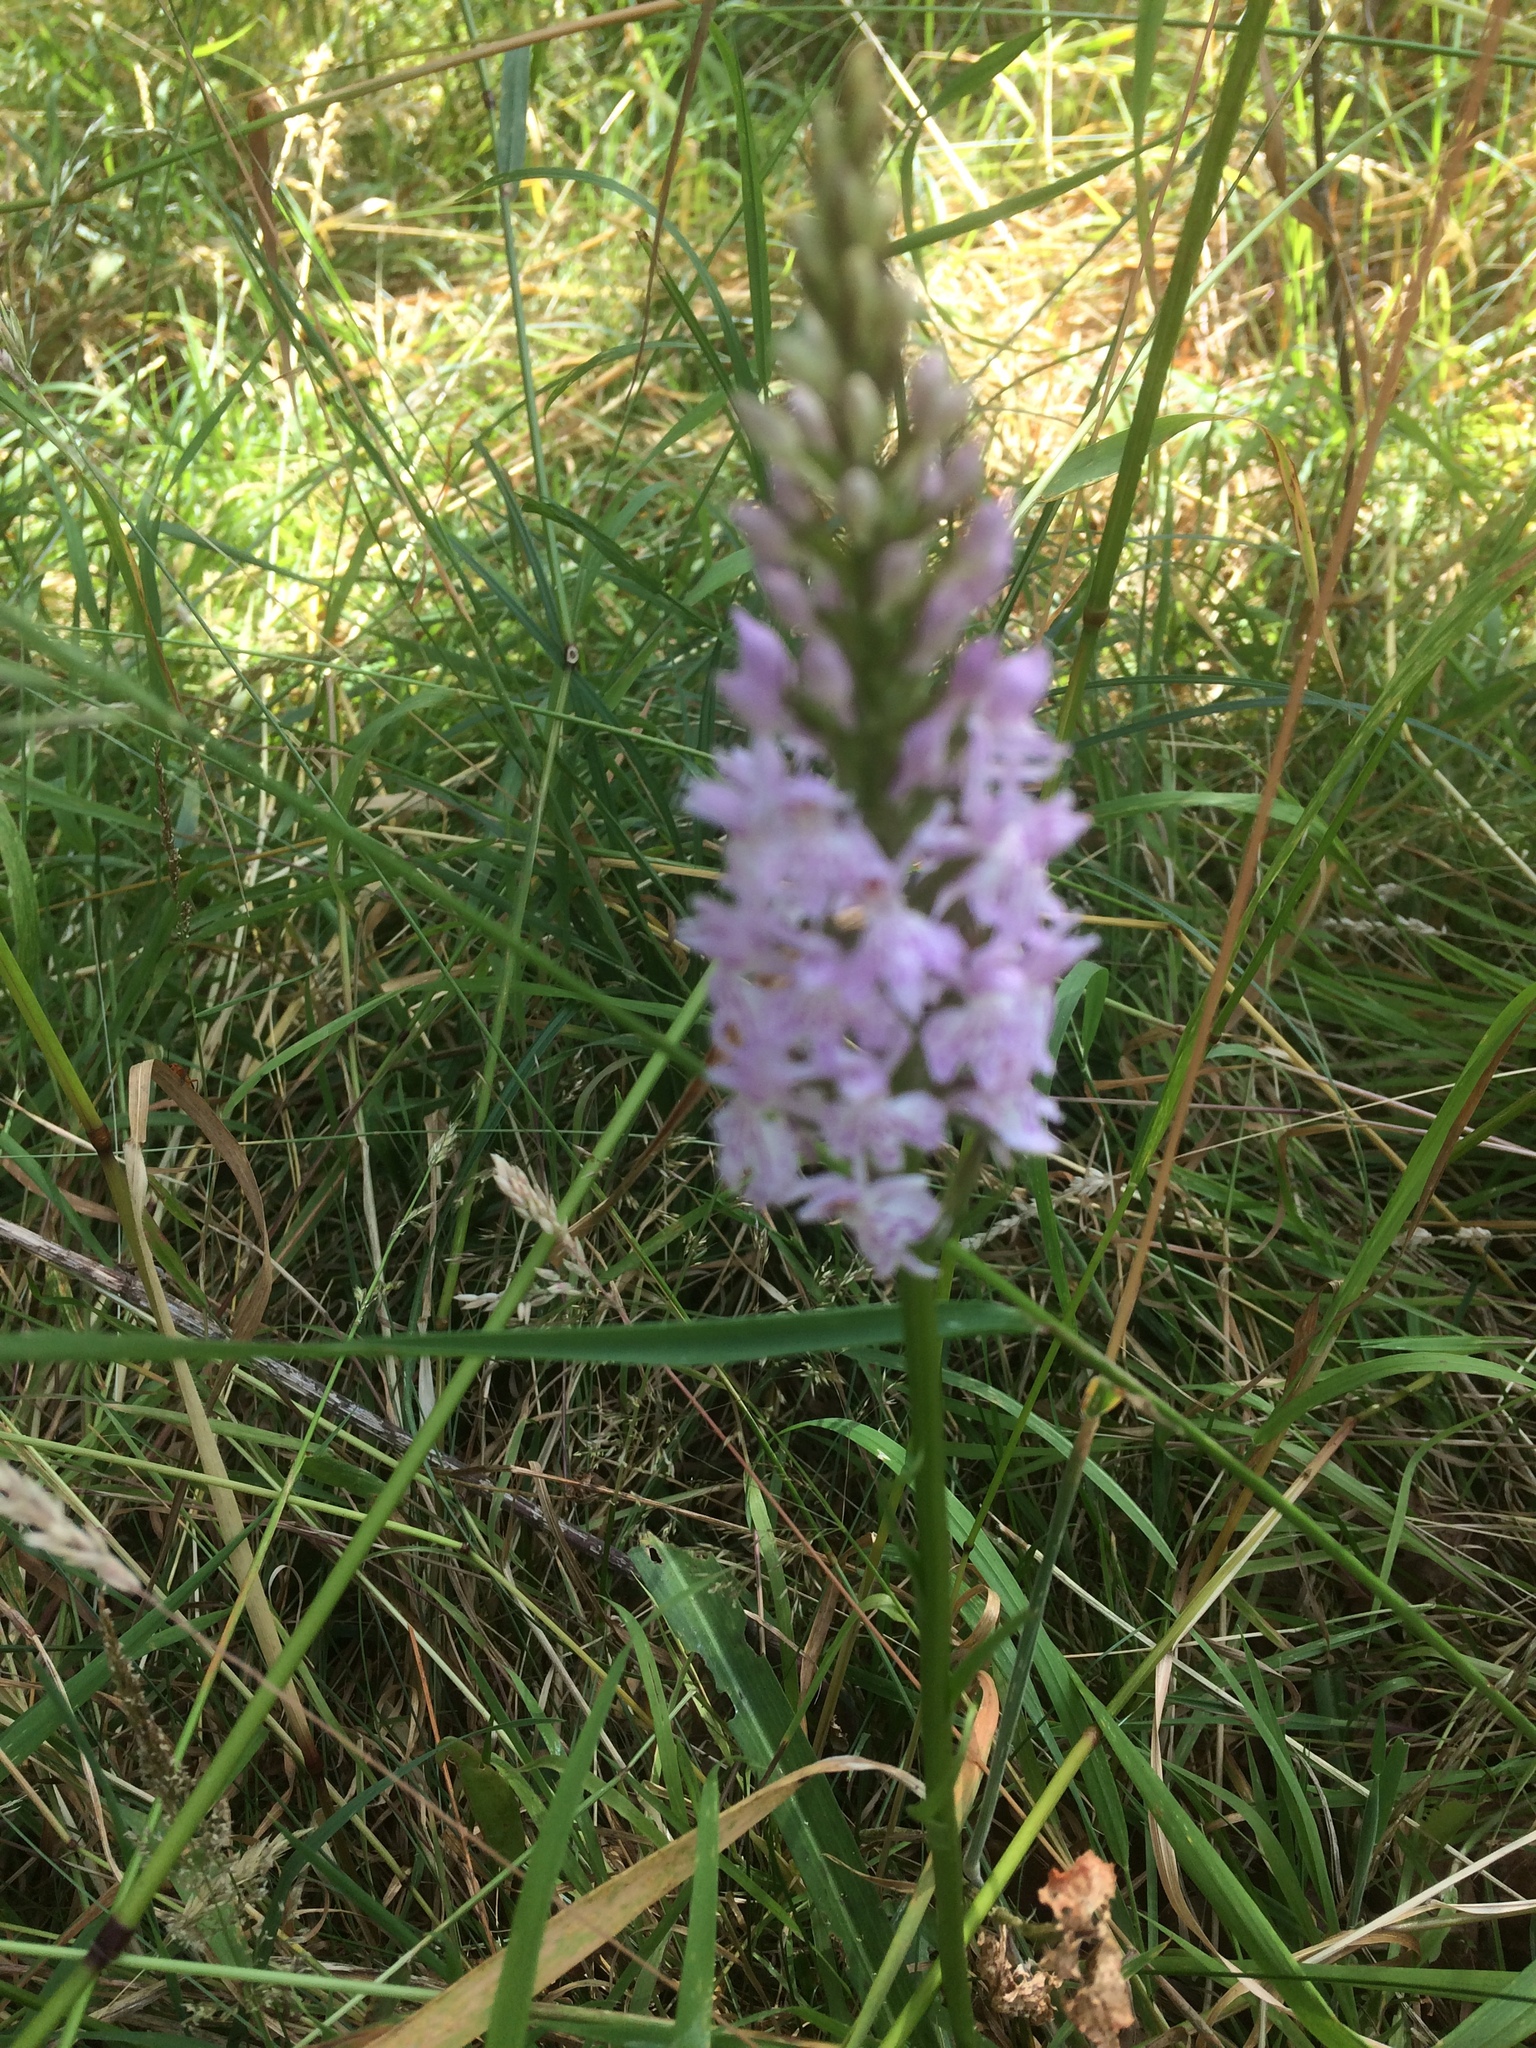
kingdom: Plantae
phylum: Tracheophyta
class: Liliopsida
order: Asparagales
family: Orchidaceae
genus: Dactylorhiza
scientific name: Dactylorhiza maculata
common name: Heath spotted-orchid
